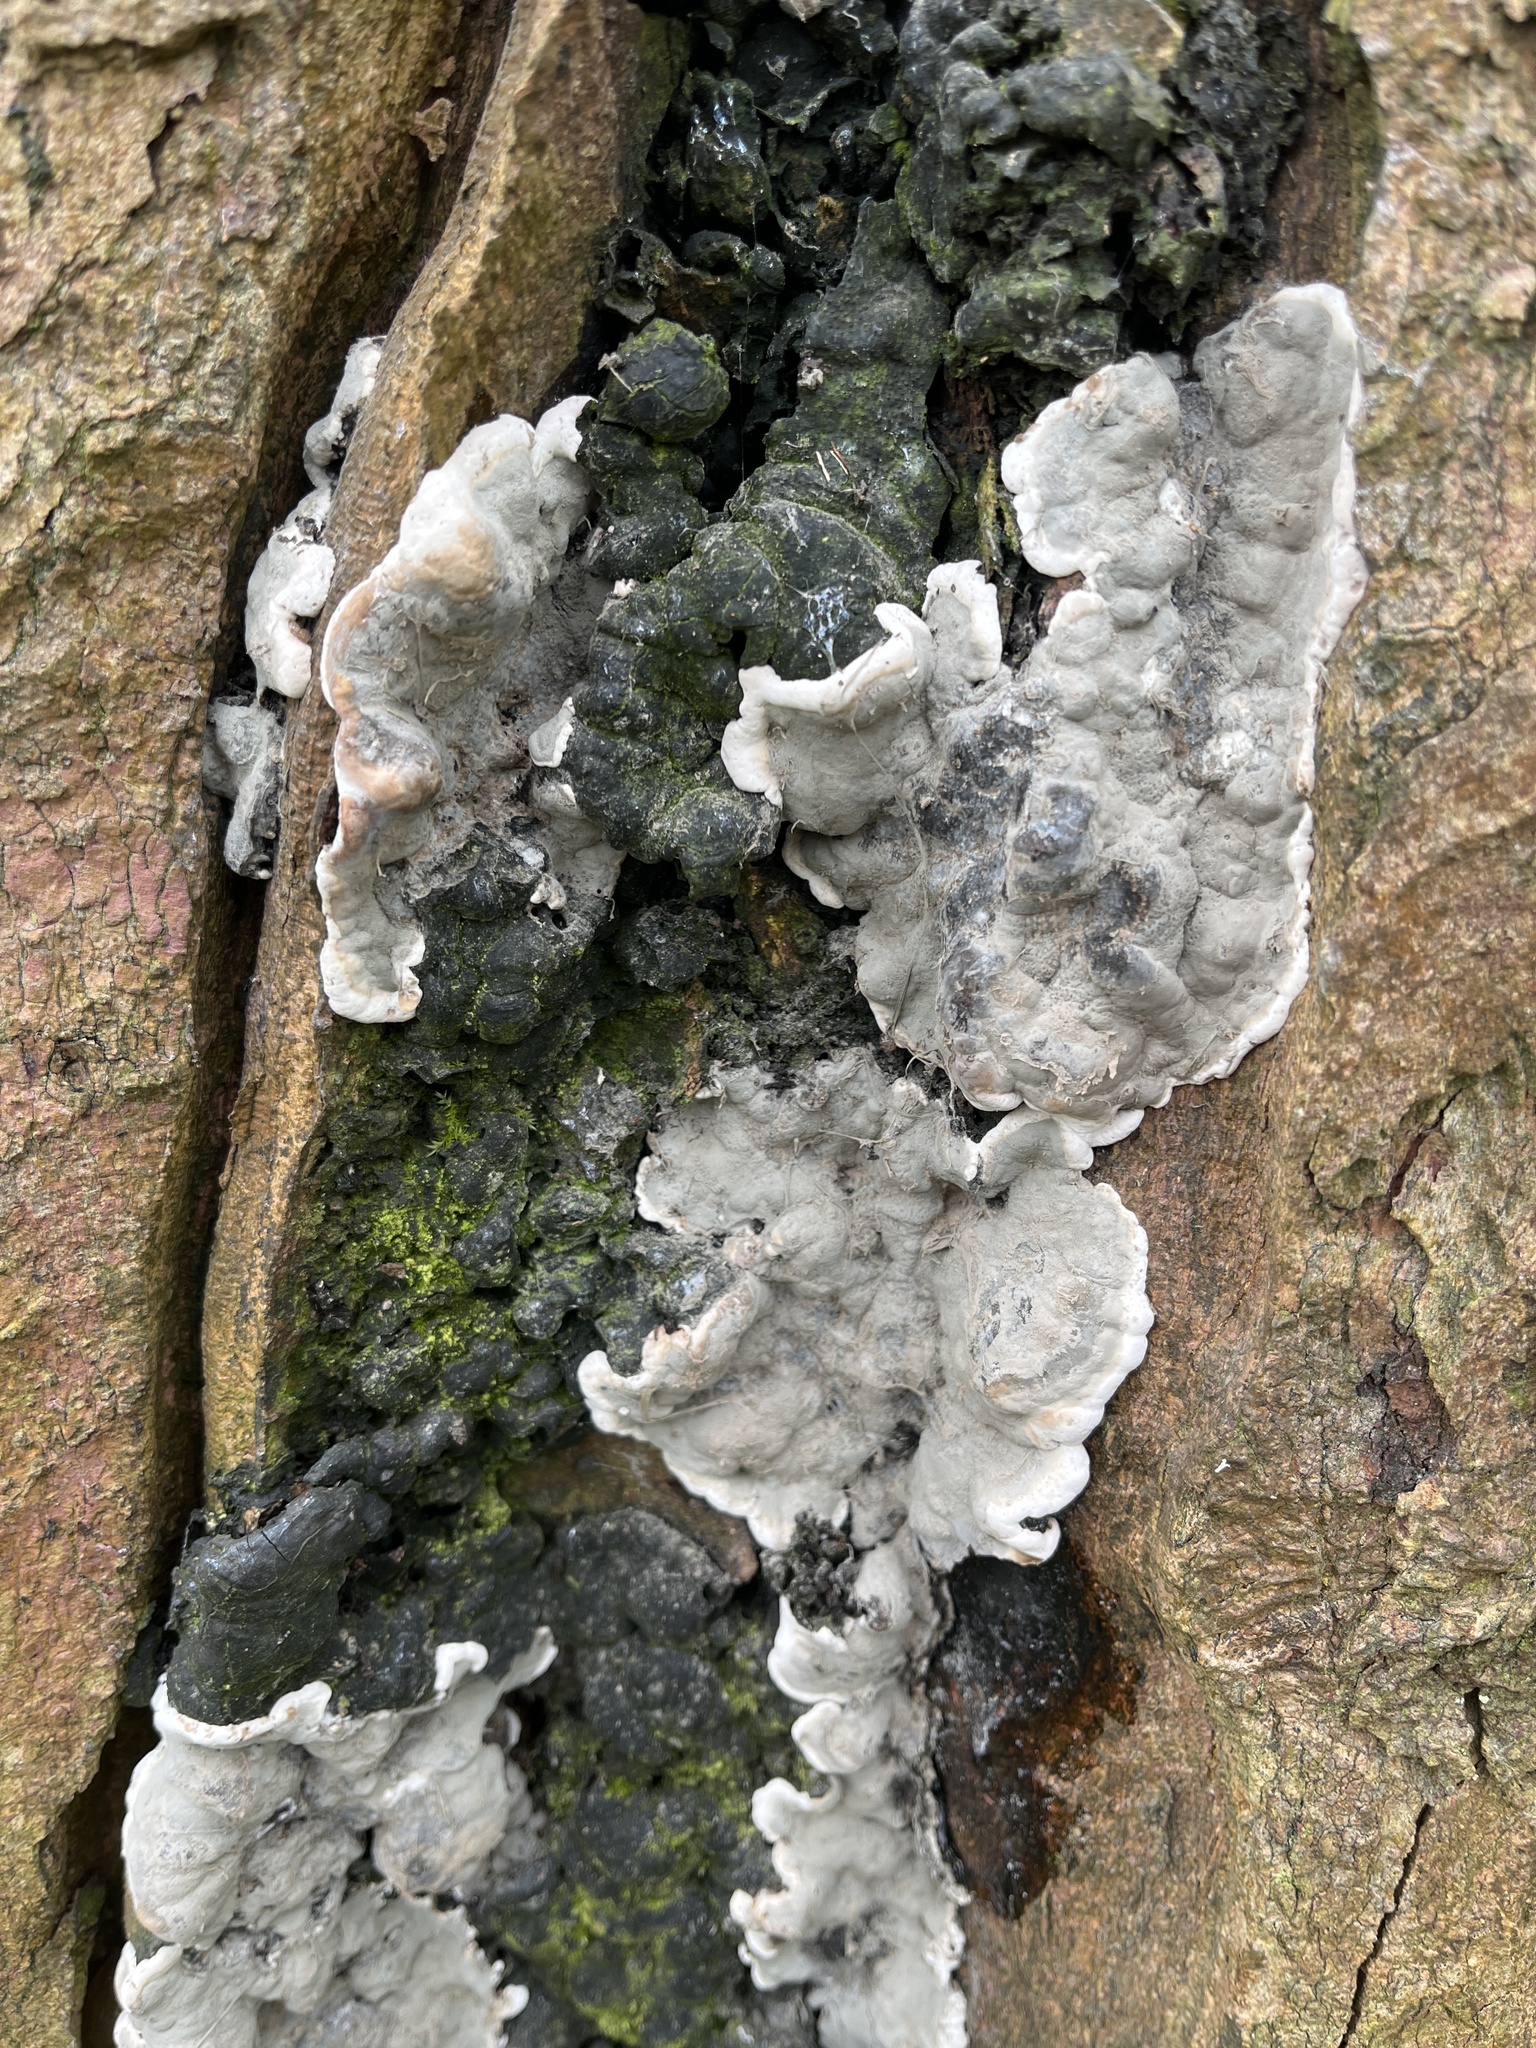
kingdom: Fungi
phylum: Ascomycota
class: Sordariomycetes
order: Xylariales
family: Xylariaceae
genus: Kretzschmaria
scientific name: Kretzschmaria deusta
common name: Brittle cinder
